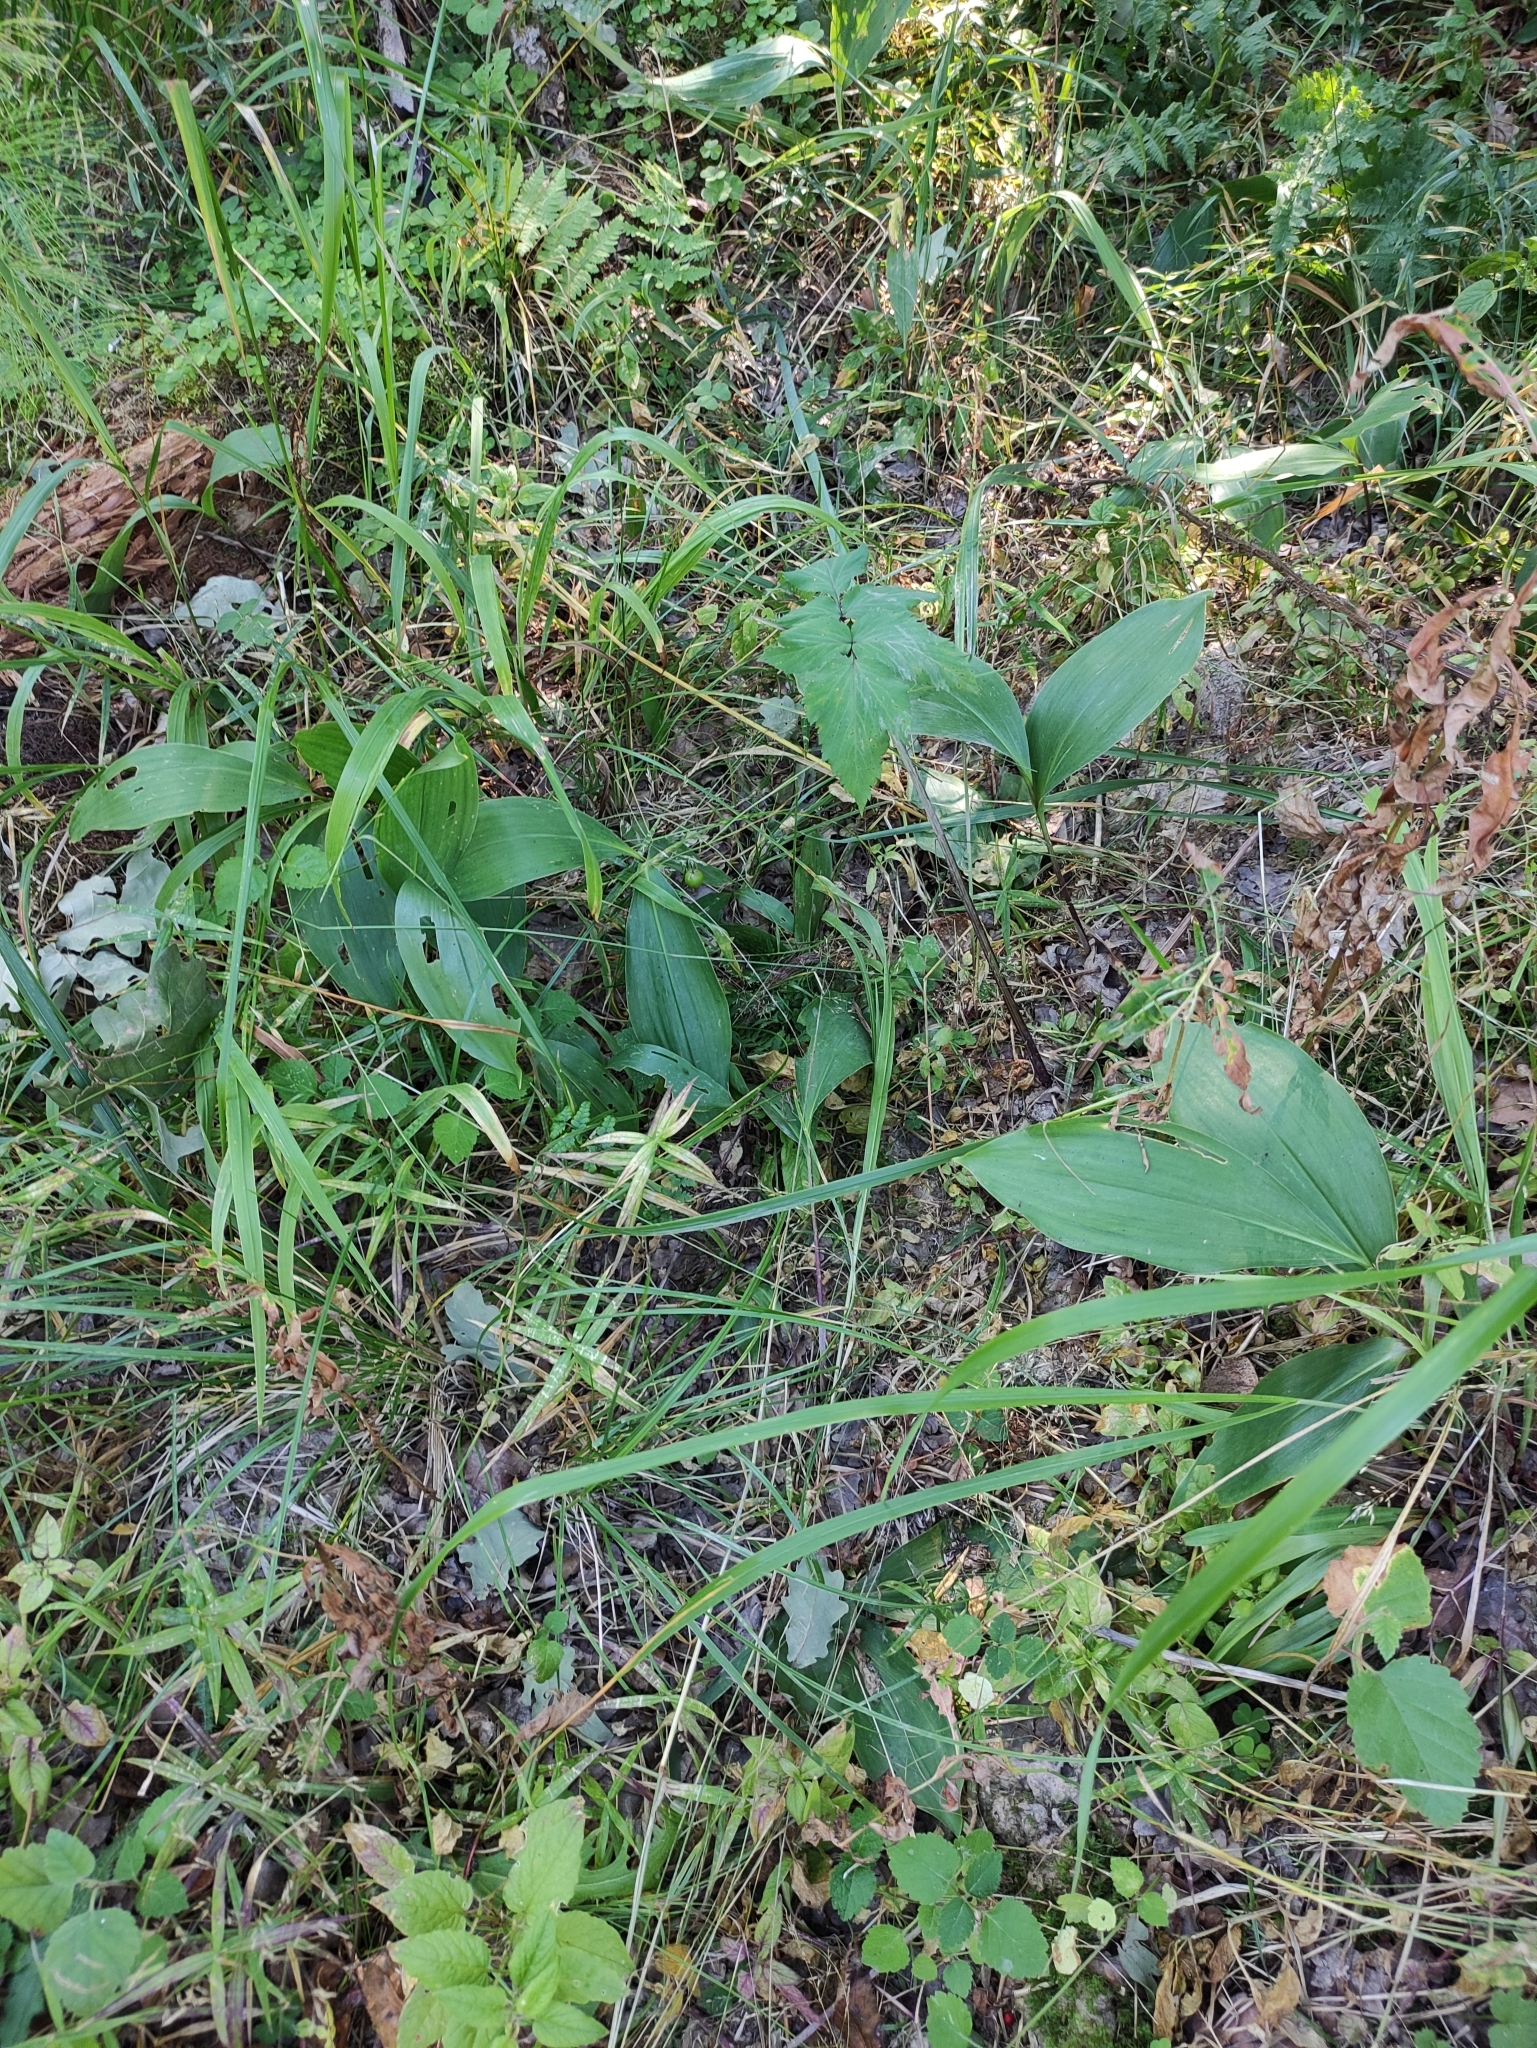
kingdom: Plantae
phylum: Tracheophyta
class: Liliopsida
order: Asparagales
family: Asparagaceae
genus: Convallaria
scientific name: Convallaria majalis
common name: Lily-of-the-valley
